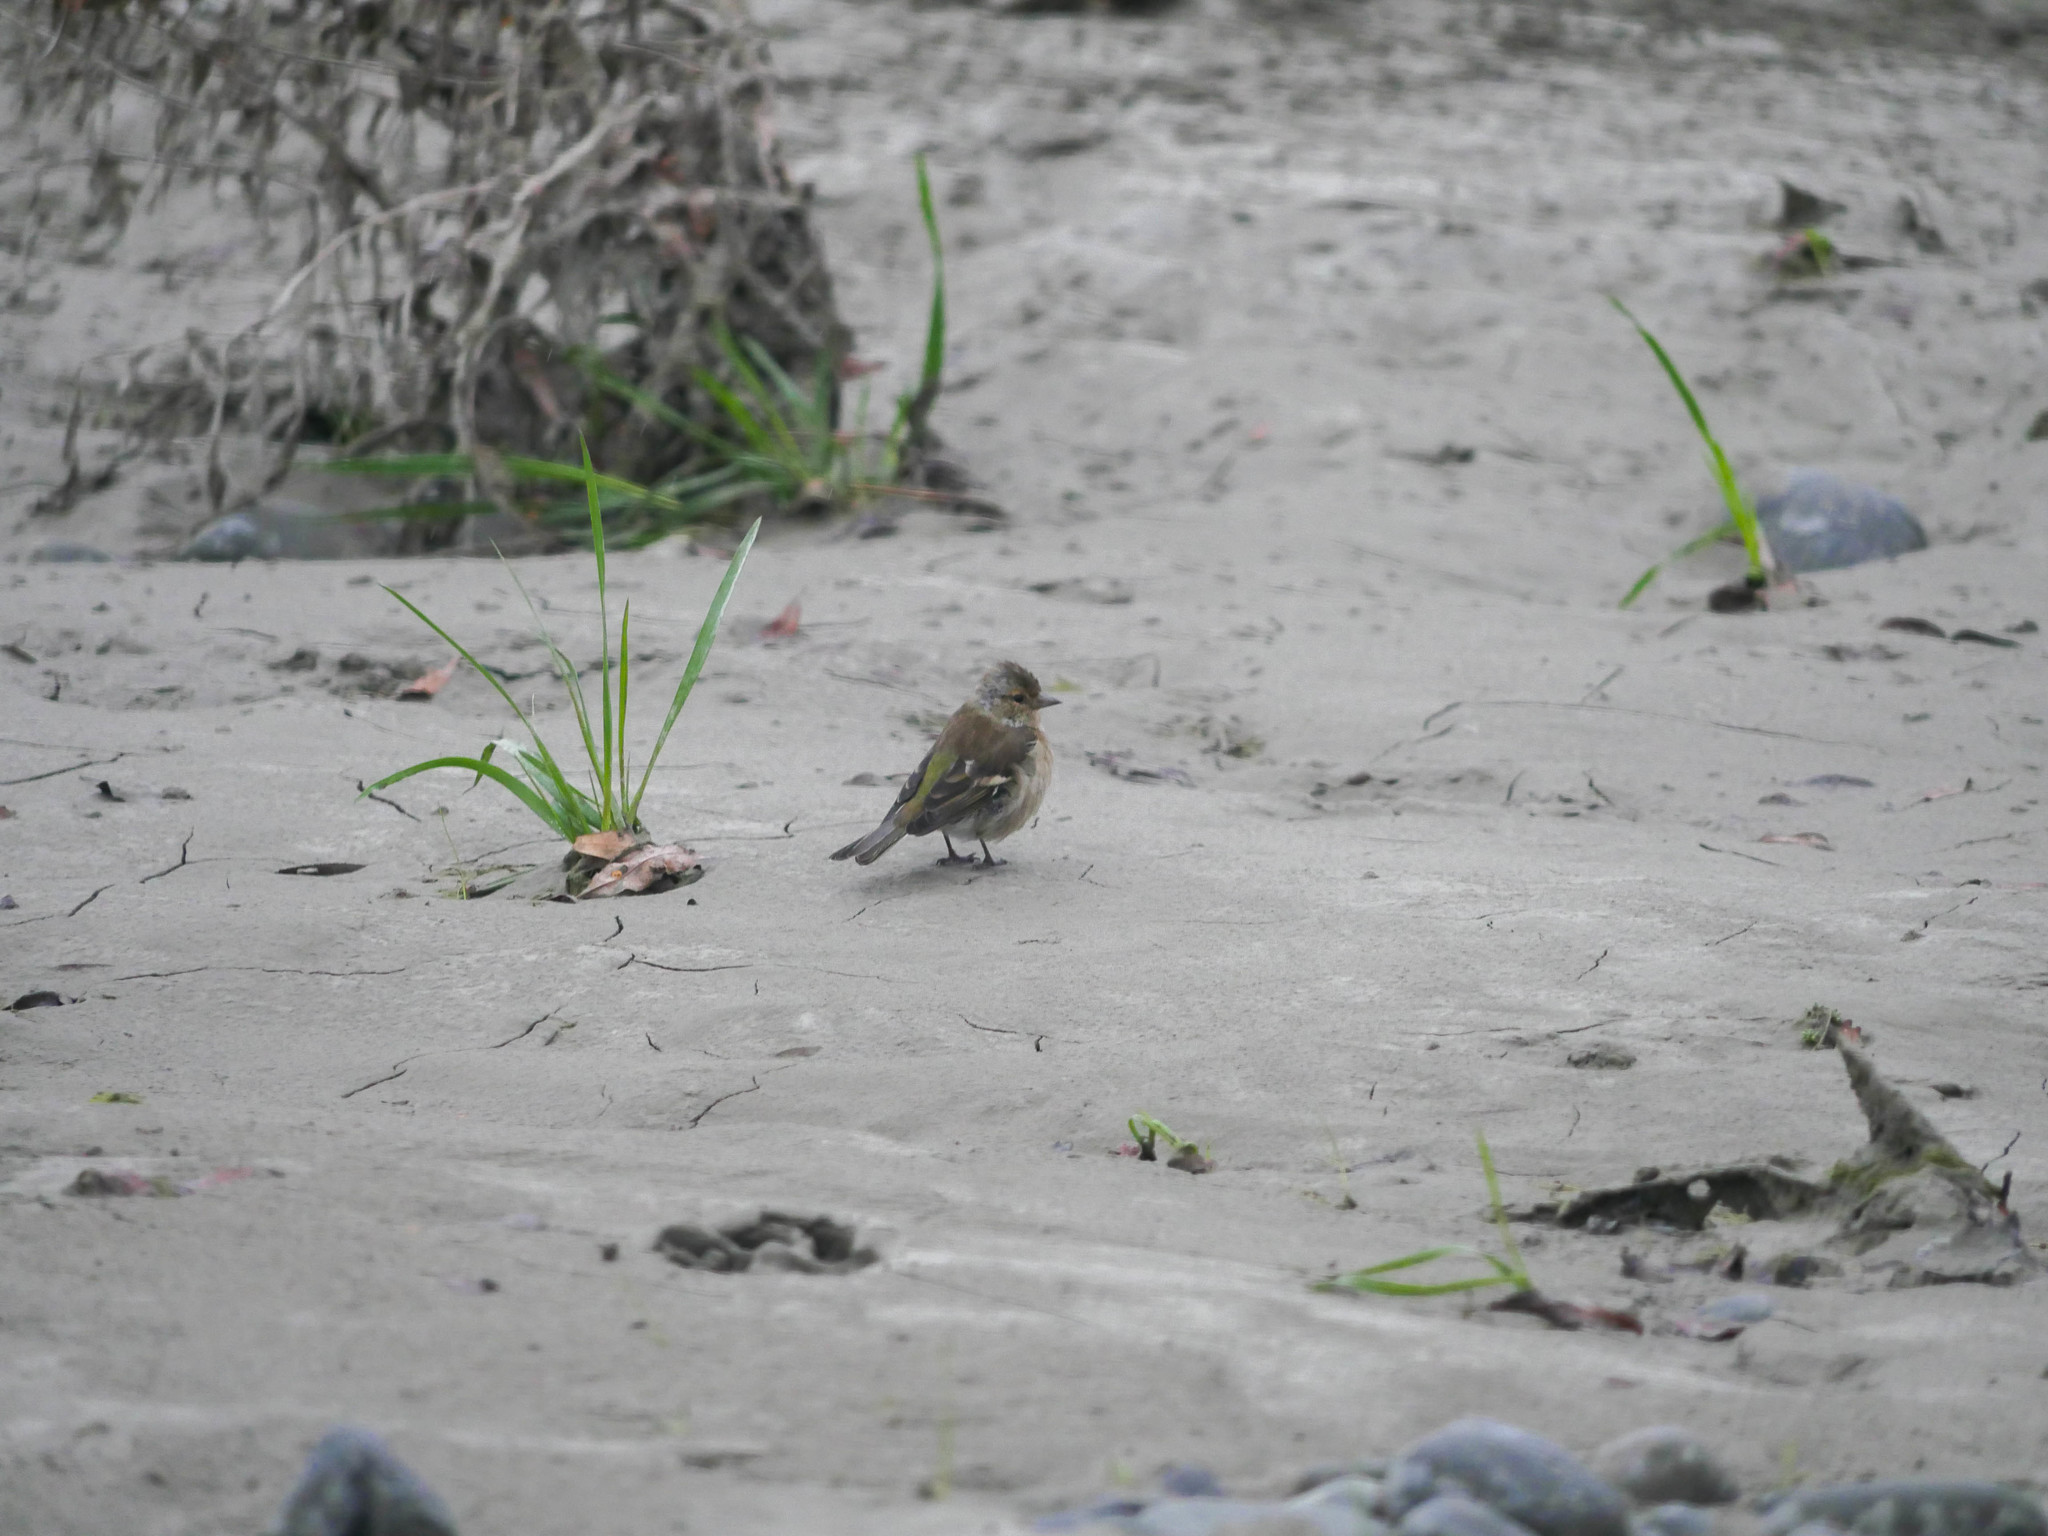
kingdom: Animalia
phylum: Chordata
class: Aves
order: Passeriformes
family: Fringillidae
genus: Fringilla
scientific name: Fringilla coelebs
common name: Common chaffinch
